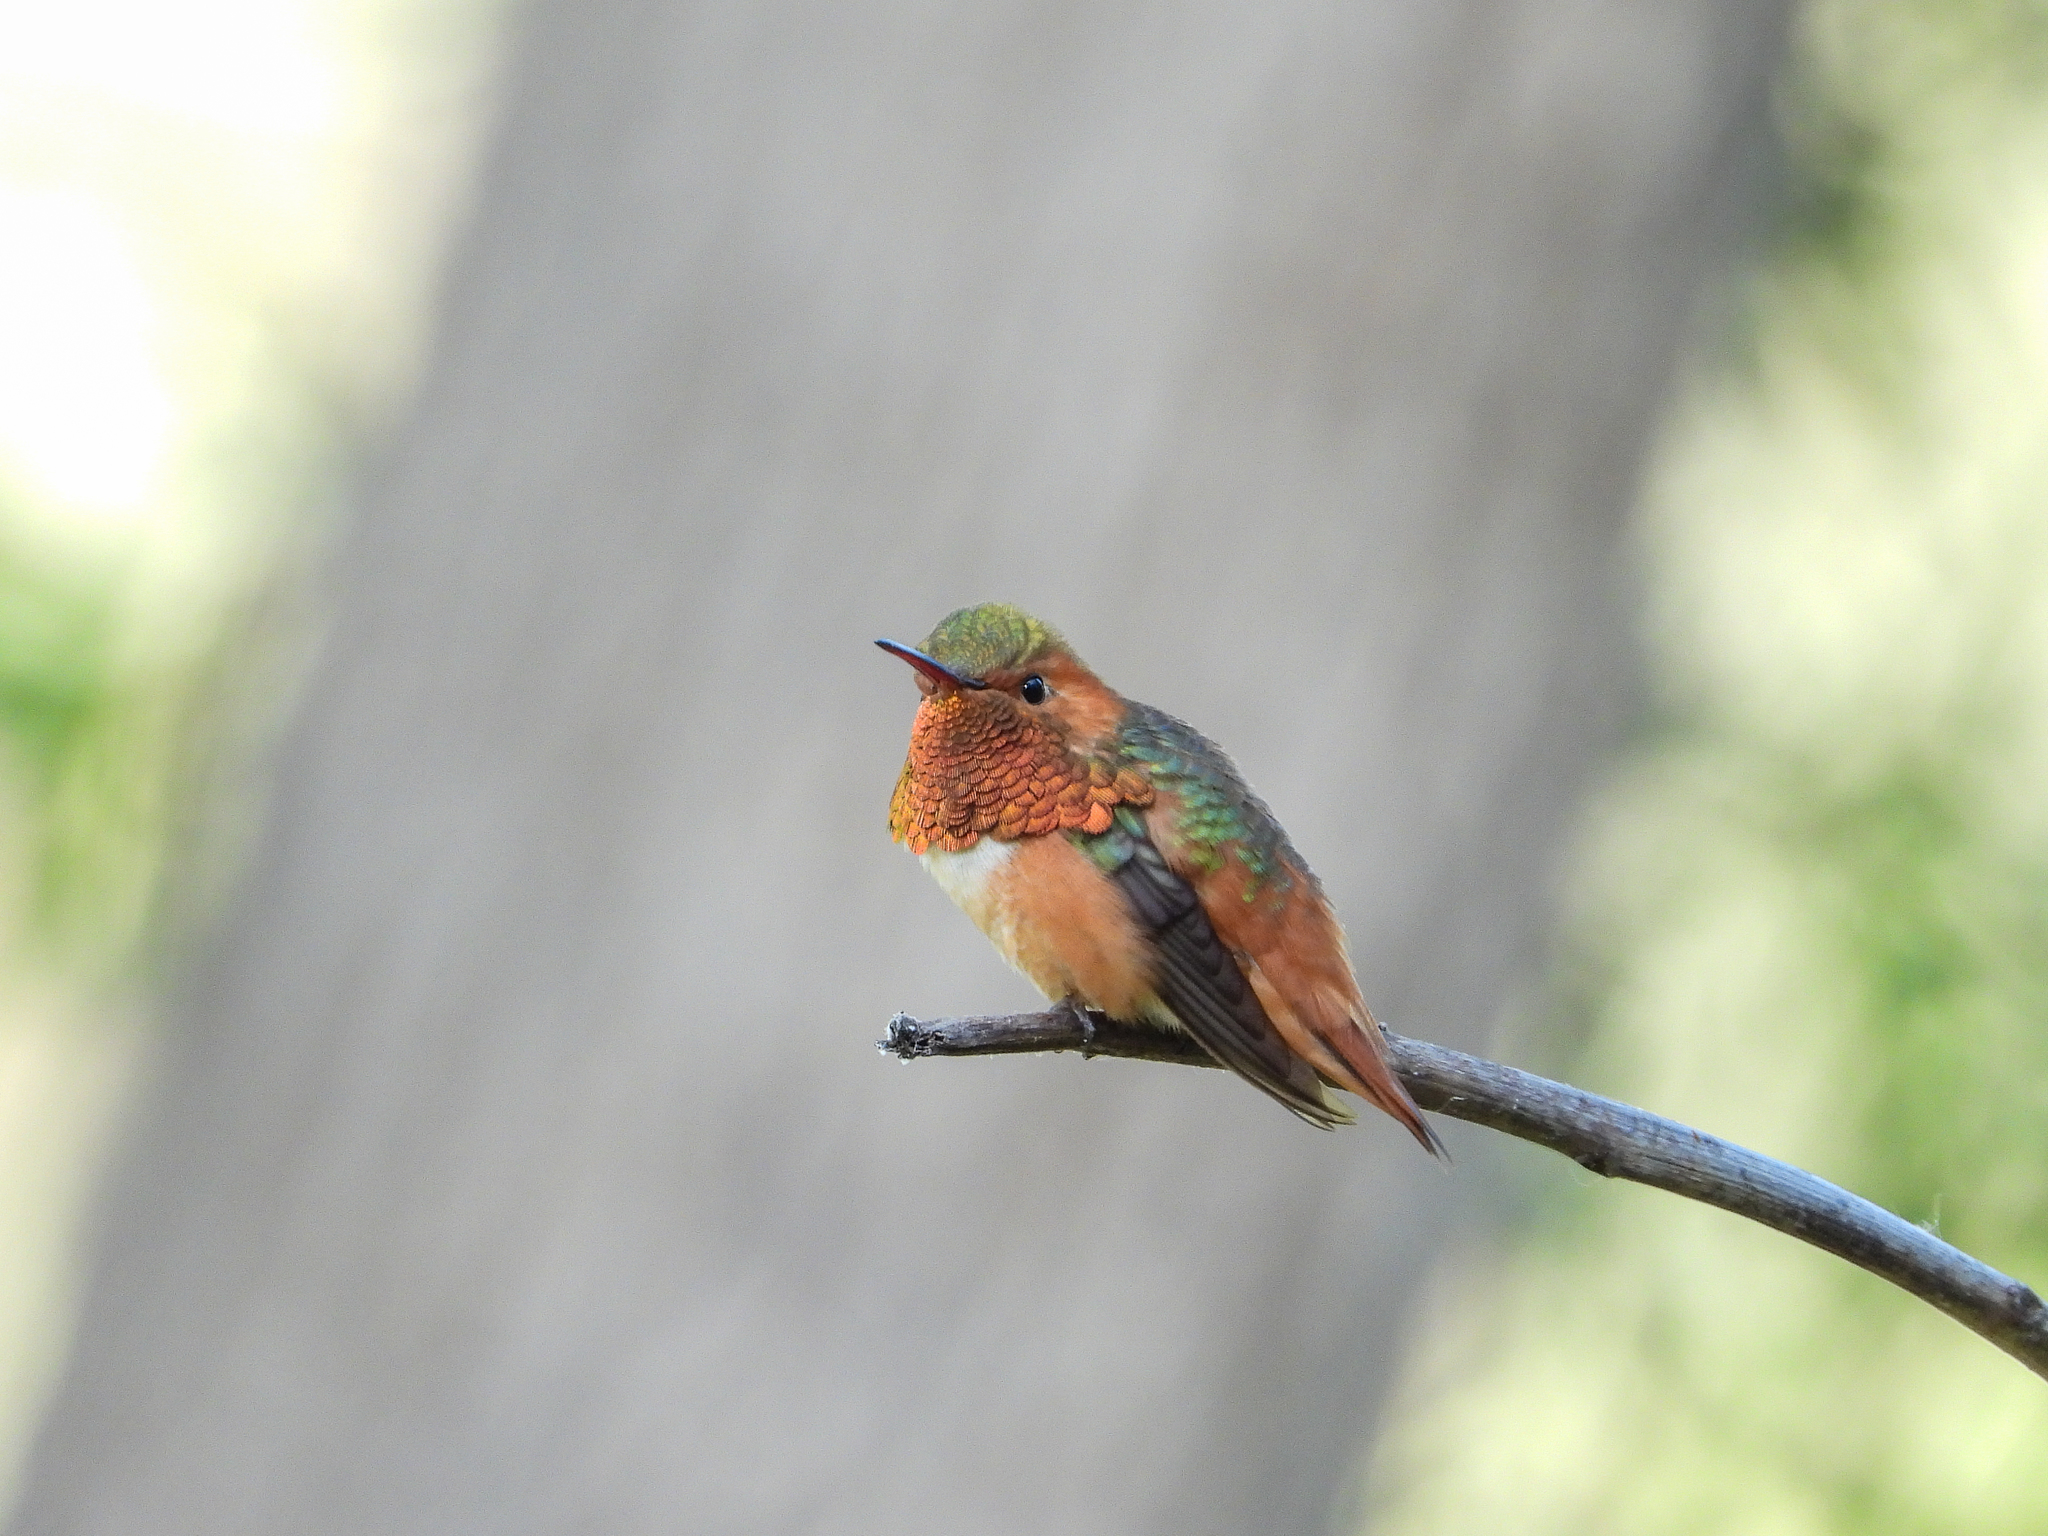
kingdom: Animalia
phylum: Chordata
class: Aves
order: Apodiformes
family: Trochilidae
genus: Selasphorus
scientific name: Selasphorus sasin
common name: Allen's hummingbird
